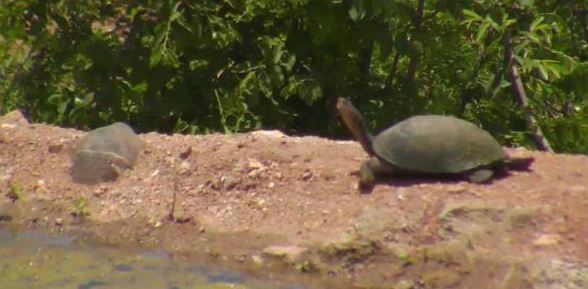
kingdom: Animalia
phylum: Chordata
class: Testudines
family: Pelomedusidae
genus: Pelusios
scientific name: Pelusios sinuatus
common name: Serrated hinged terrapin
